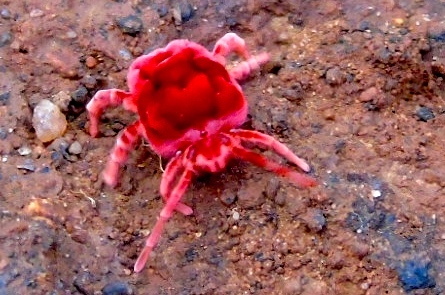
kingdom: Animalia
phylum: Arthropoda
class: Arachnida
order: Trombidiformes
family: Leeuwenhoekiidae
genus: Dinothrombium
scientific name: Dinothrombium
